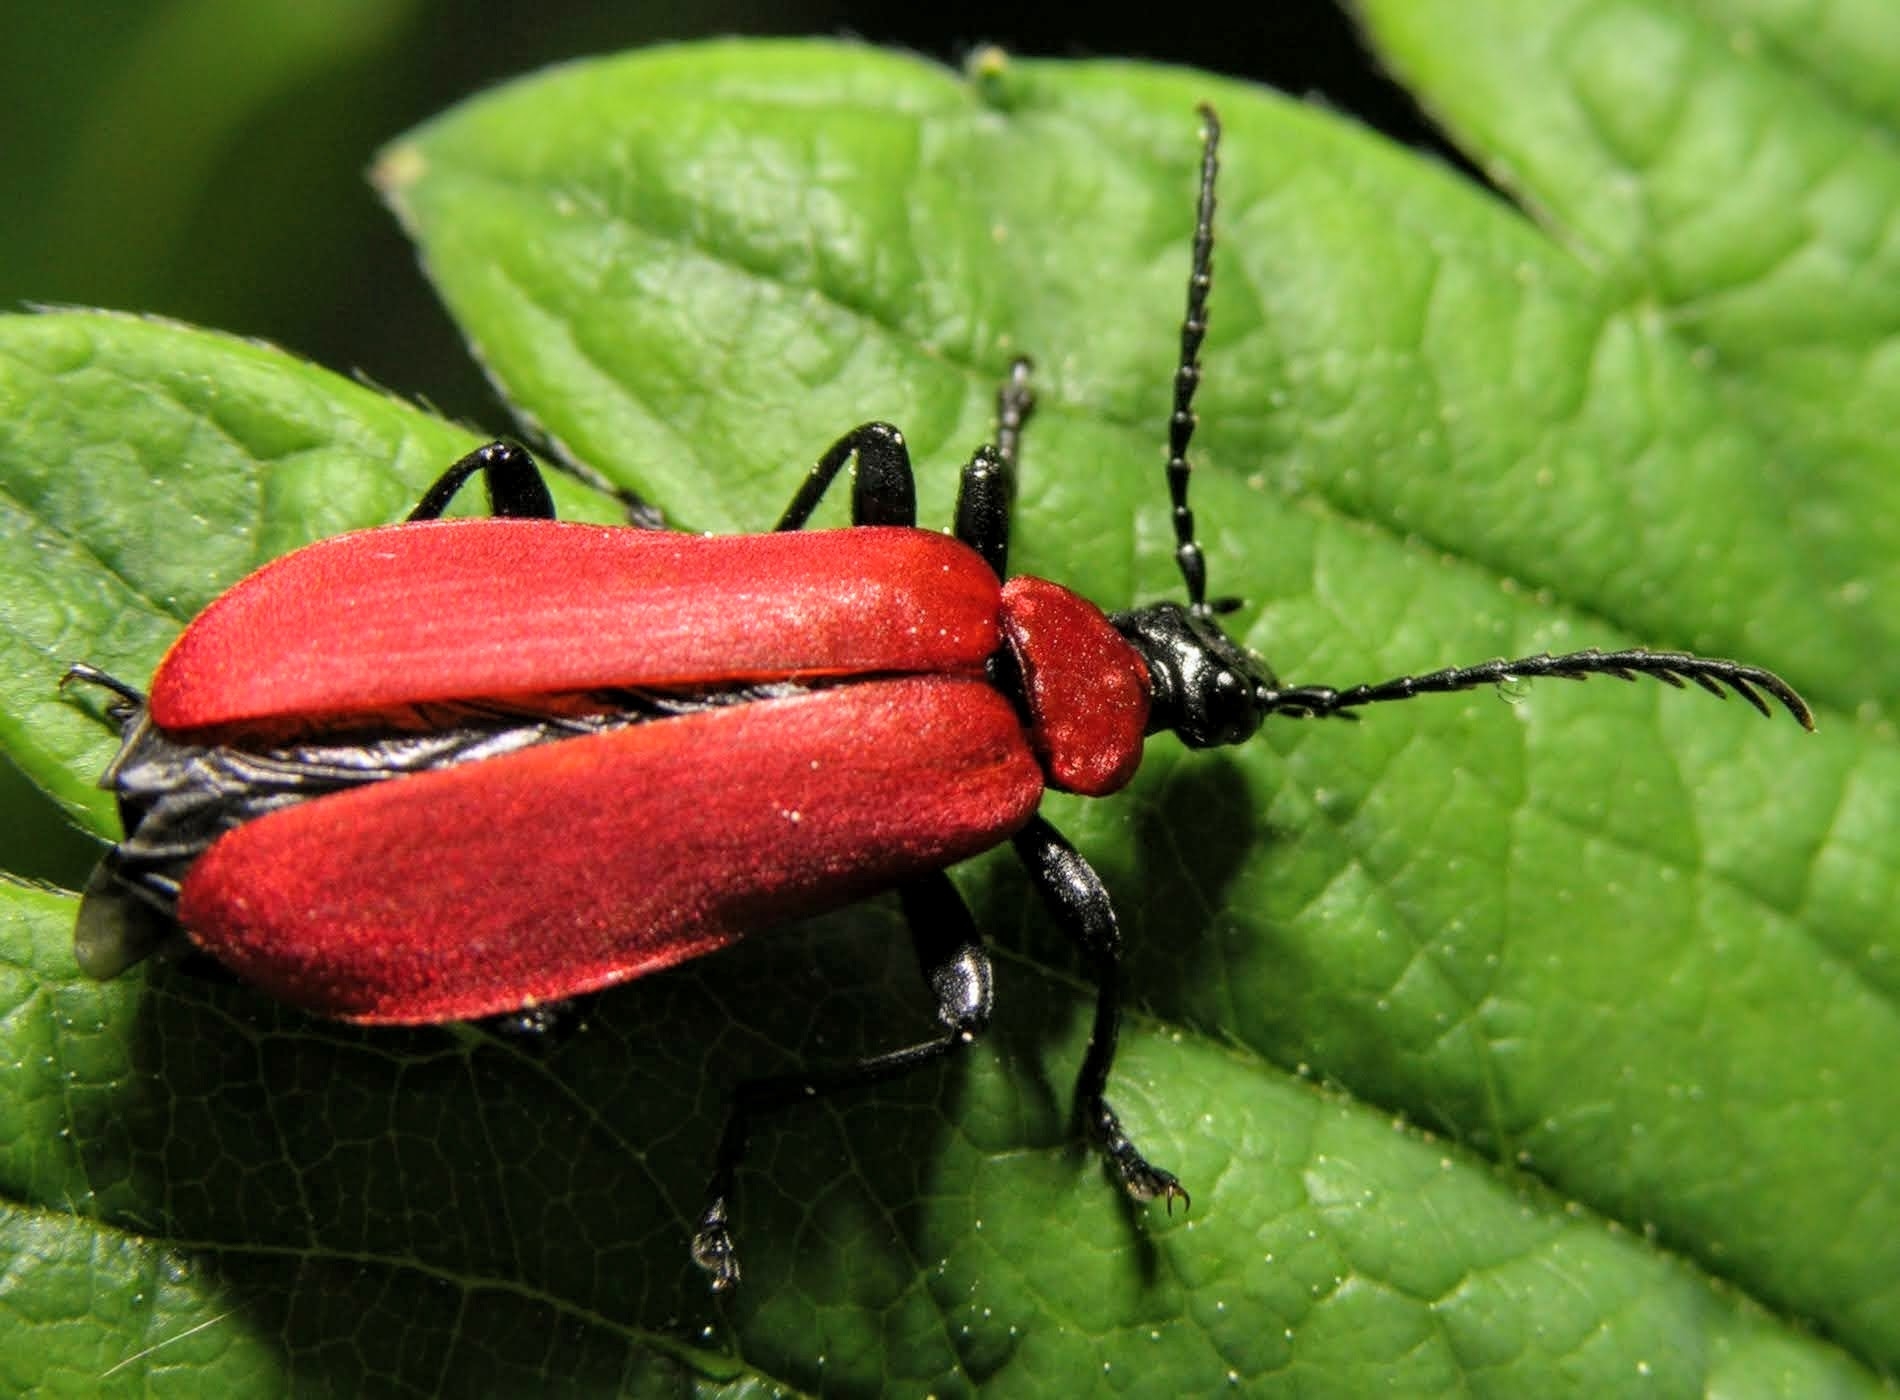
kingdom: Animalia
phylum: Arthropoda
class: Insecta
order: Coleoptera
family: Pyrochroidae
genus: Pyrochroa
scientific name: Pyrochroa coccinea
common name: Black-headed cardinal beetle
